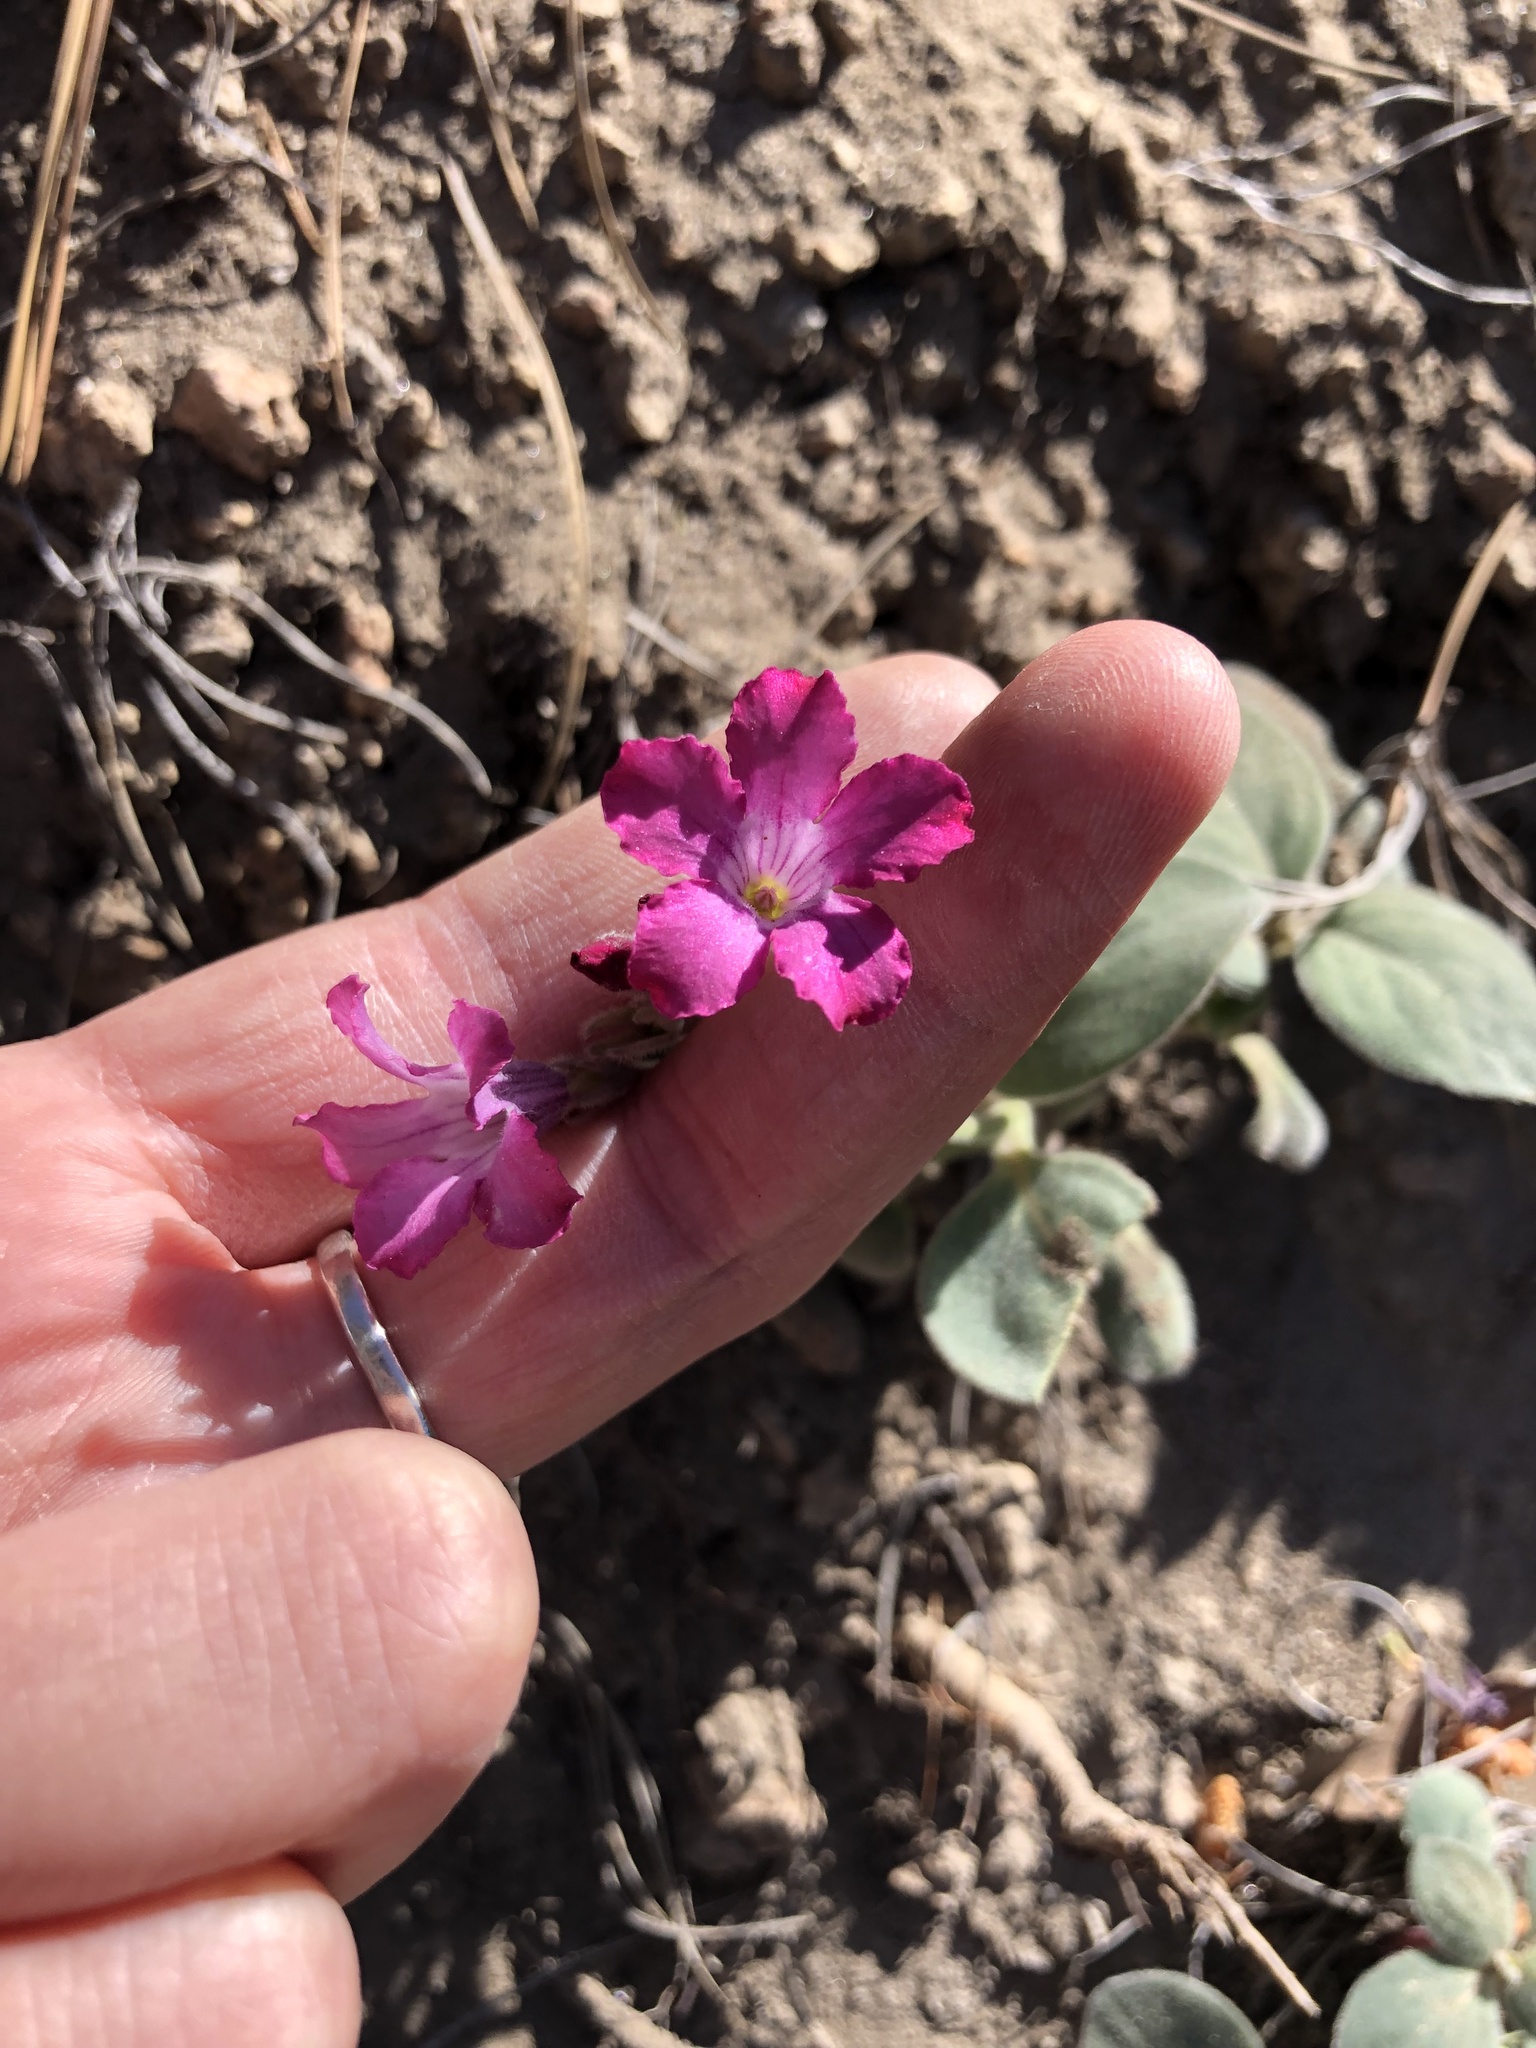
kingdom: Plantae
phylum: Tracheophyta
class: Magnoliopsida
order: Gentianales
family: Apocynaceae
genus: Cycladenia
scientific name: Cycladenia humilis
